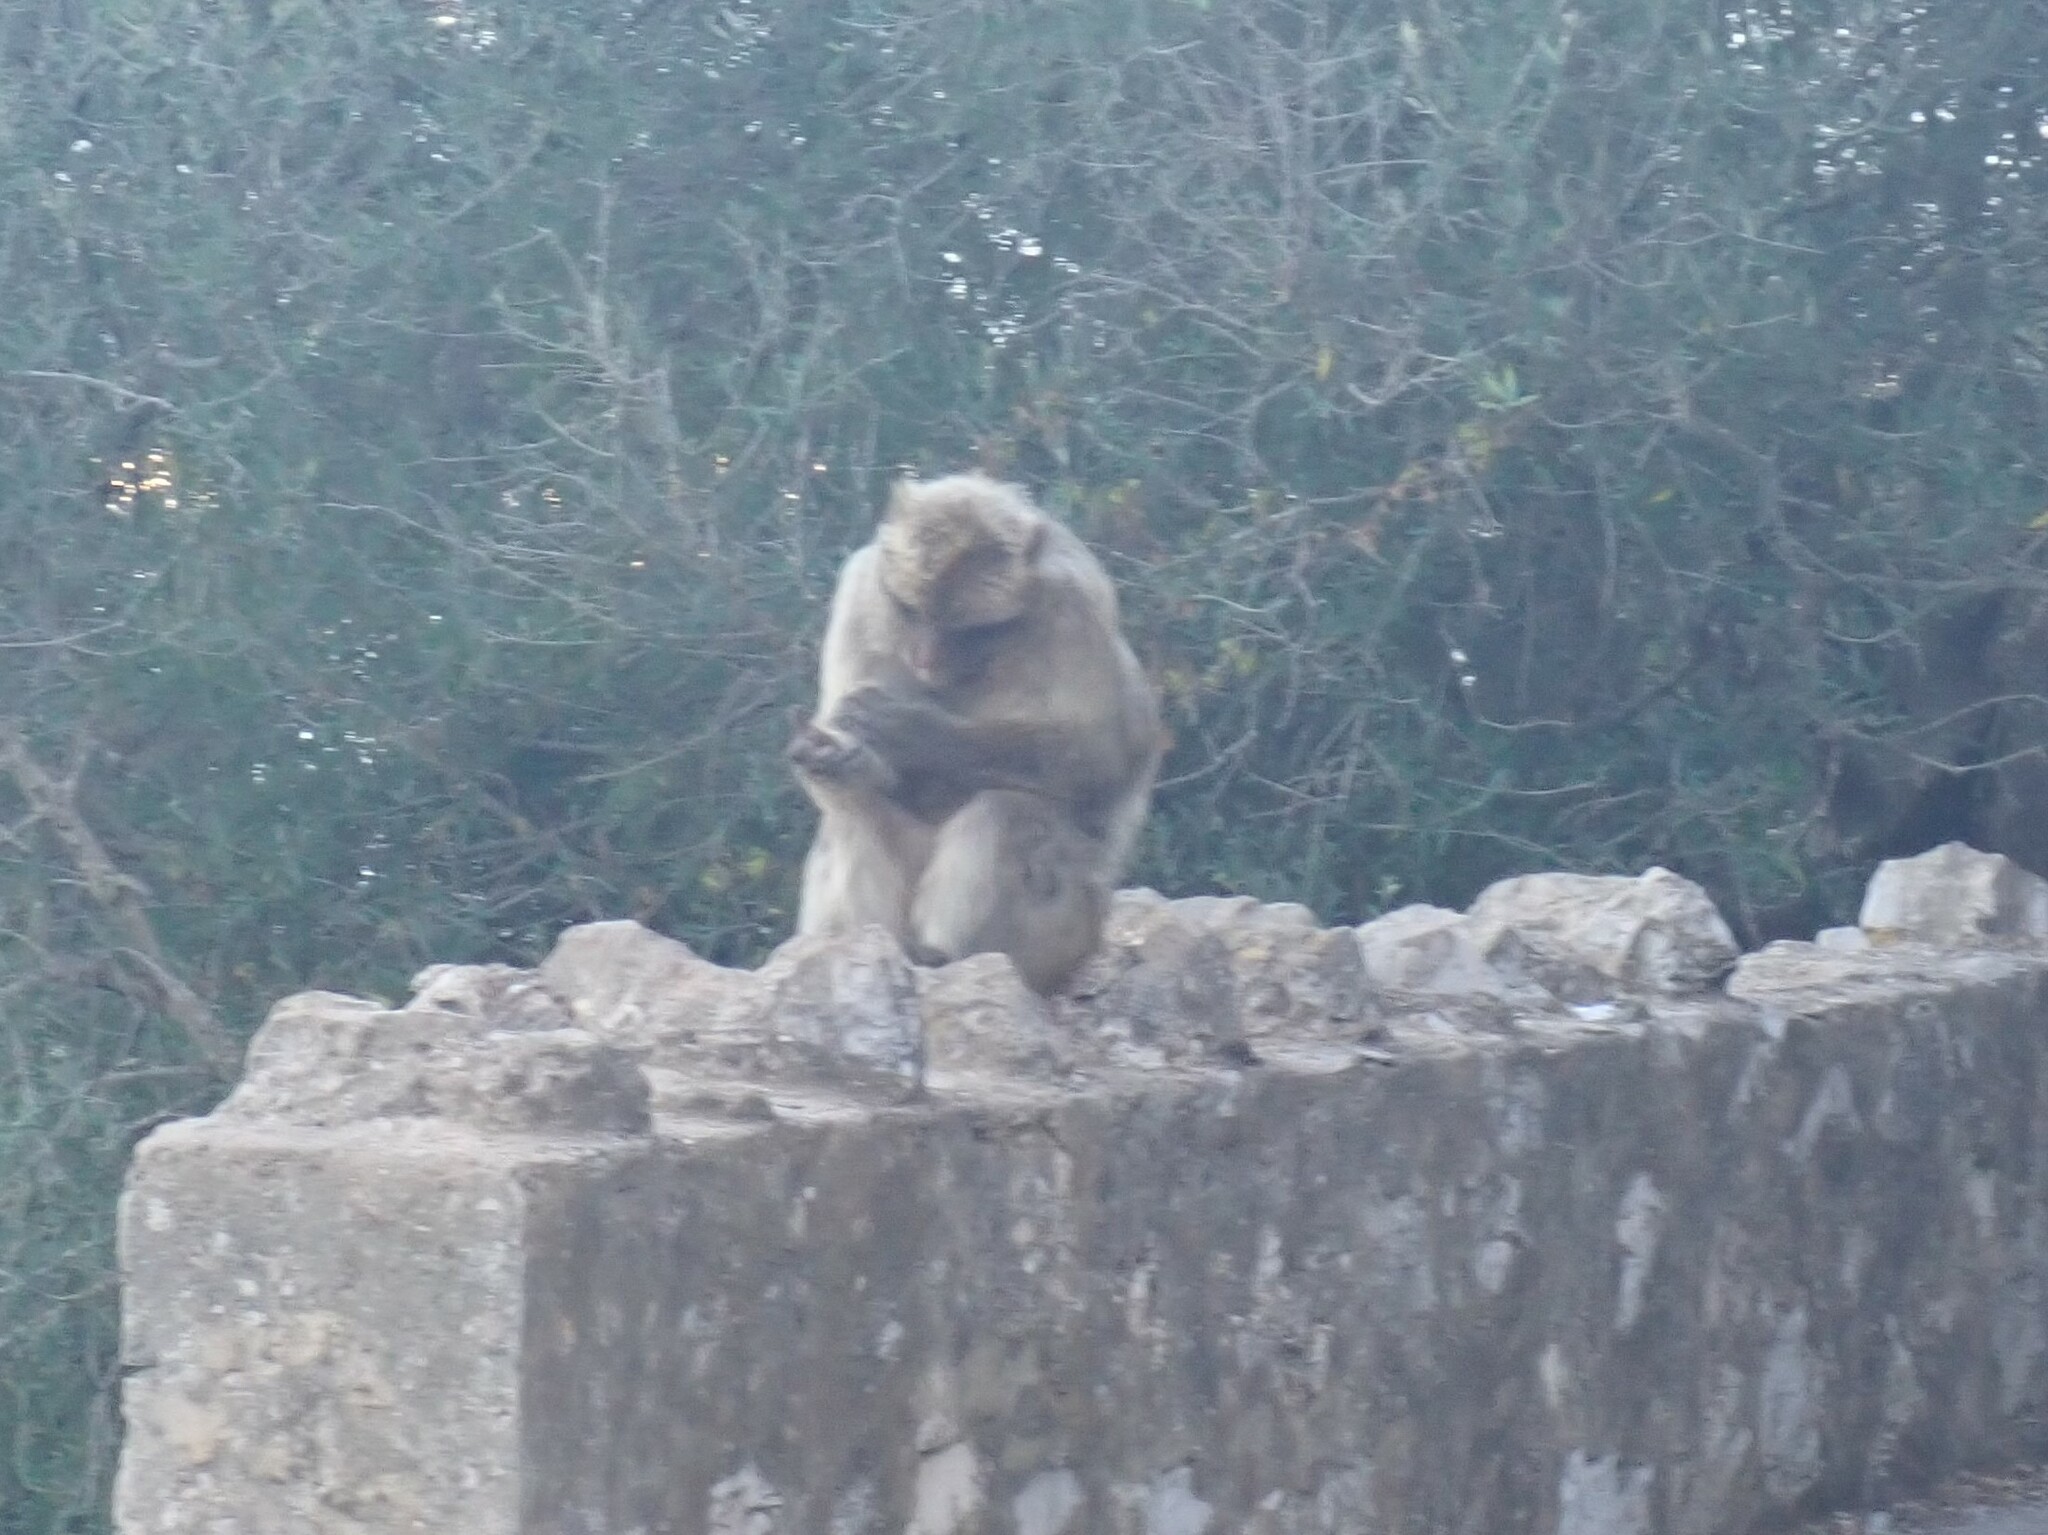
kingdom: Animalia
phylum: Chordata
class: Mammalia
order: Primates
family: Cercopithecidae
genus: Macaca
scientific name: Macaca sylvanus
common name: Barbary macaque
